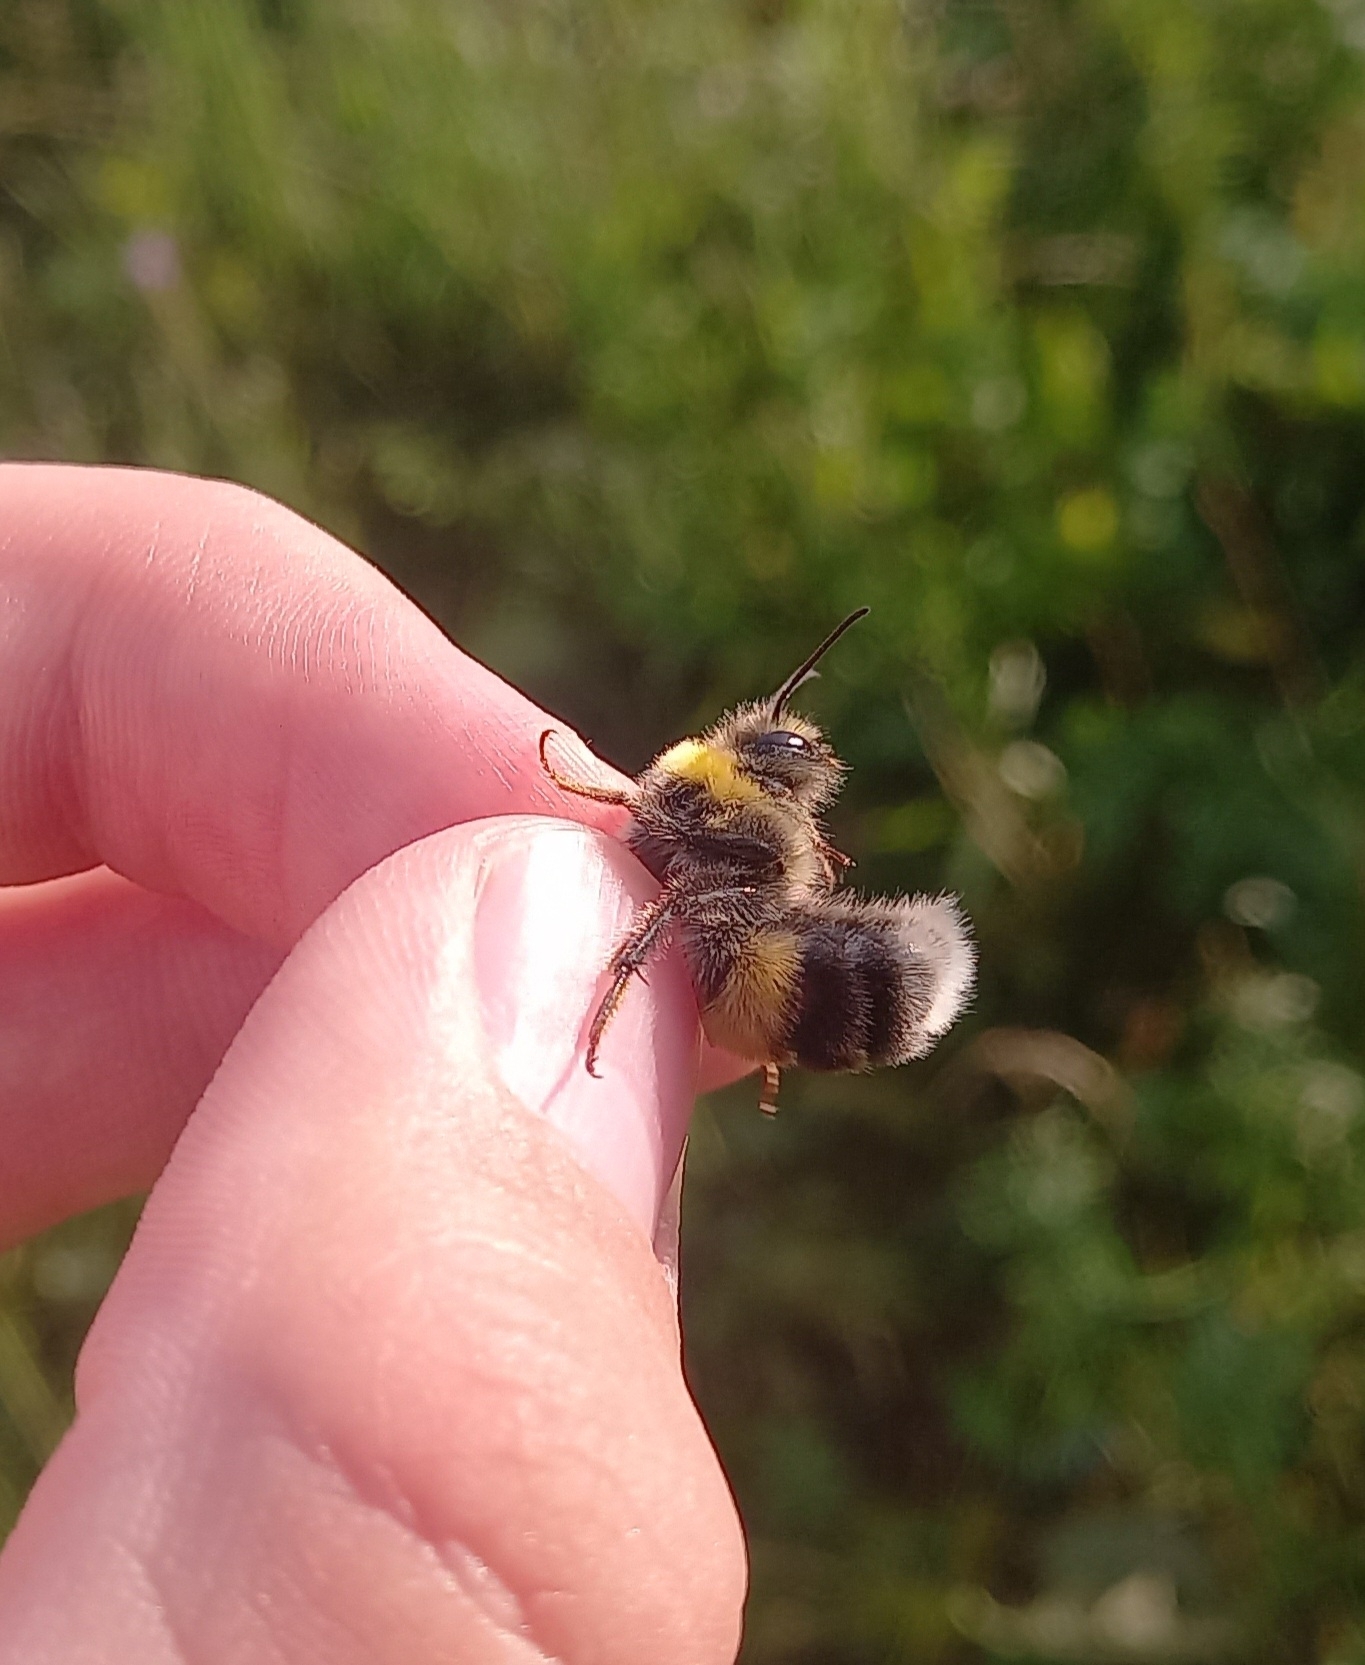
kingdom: Animalia
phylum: Arthropoda
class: Insecta
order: Hymenoptera
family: Apidae
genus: Bombus
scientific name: Bombus lucorum
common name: White-tailed bumblebee
